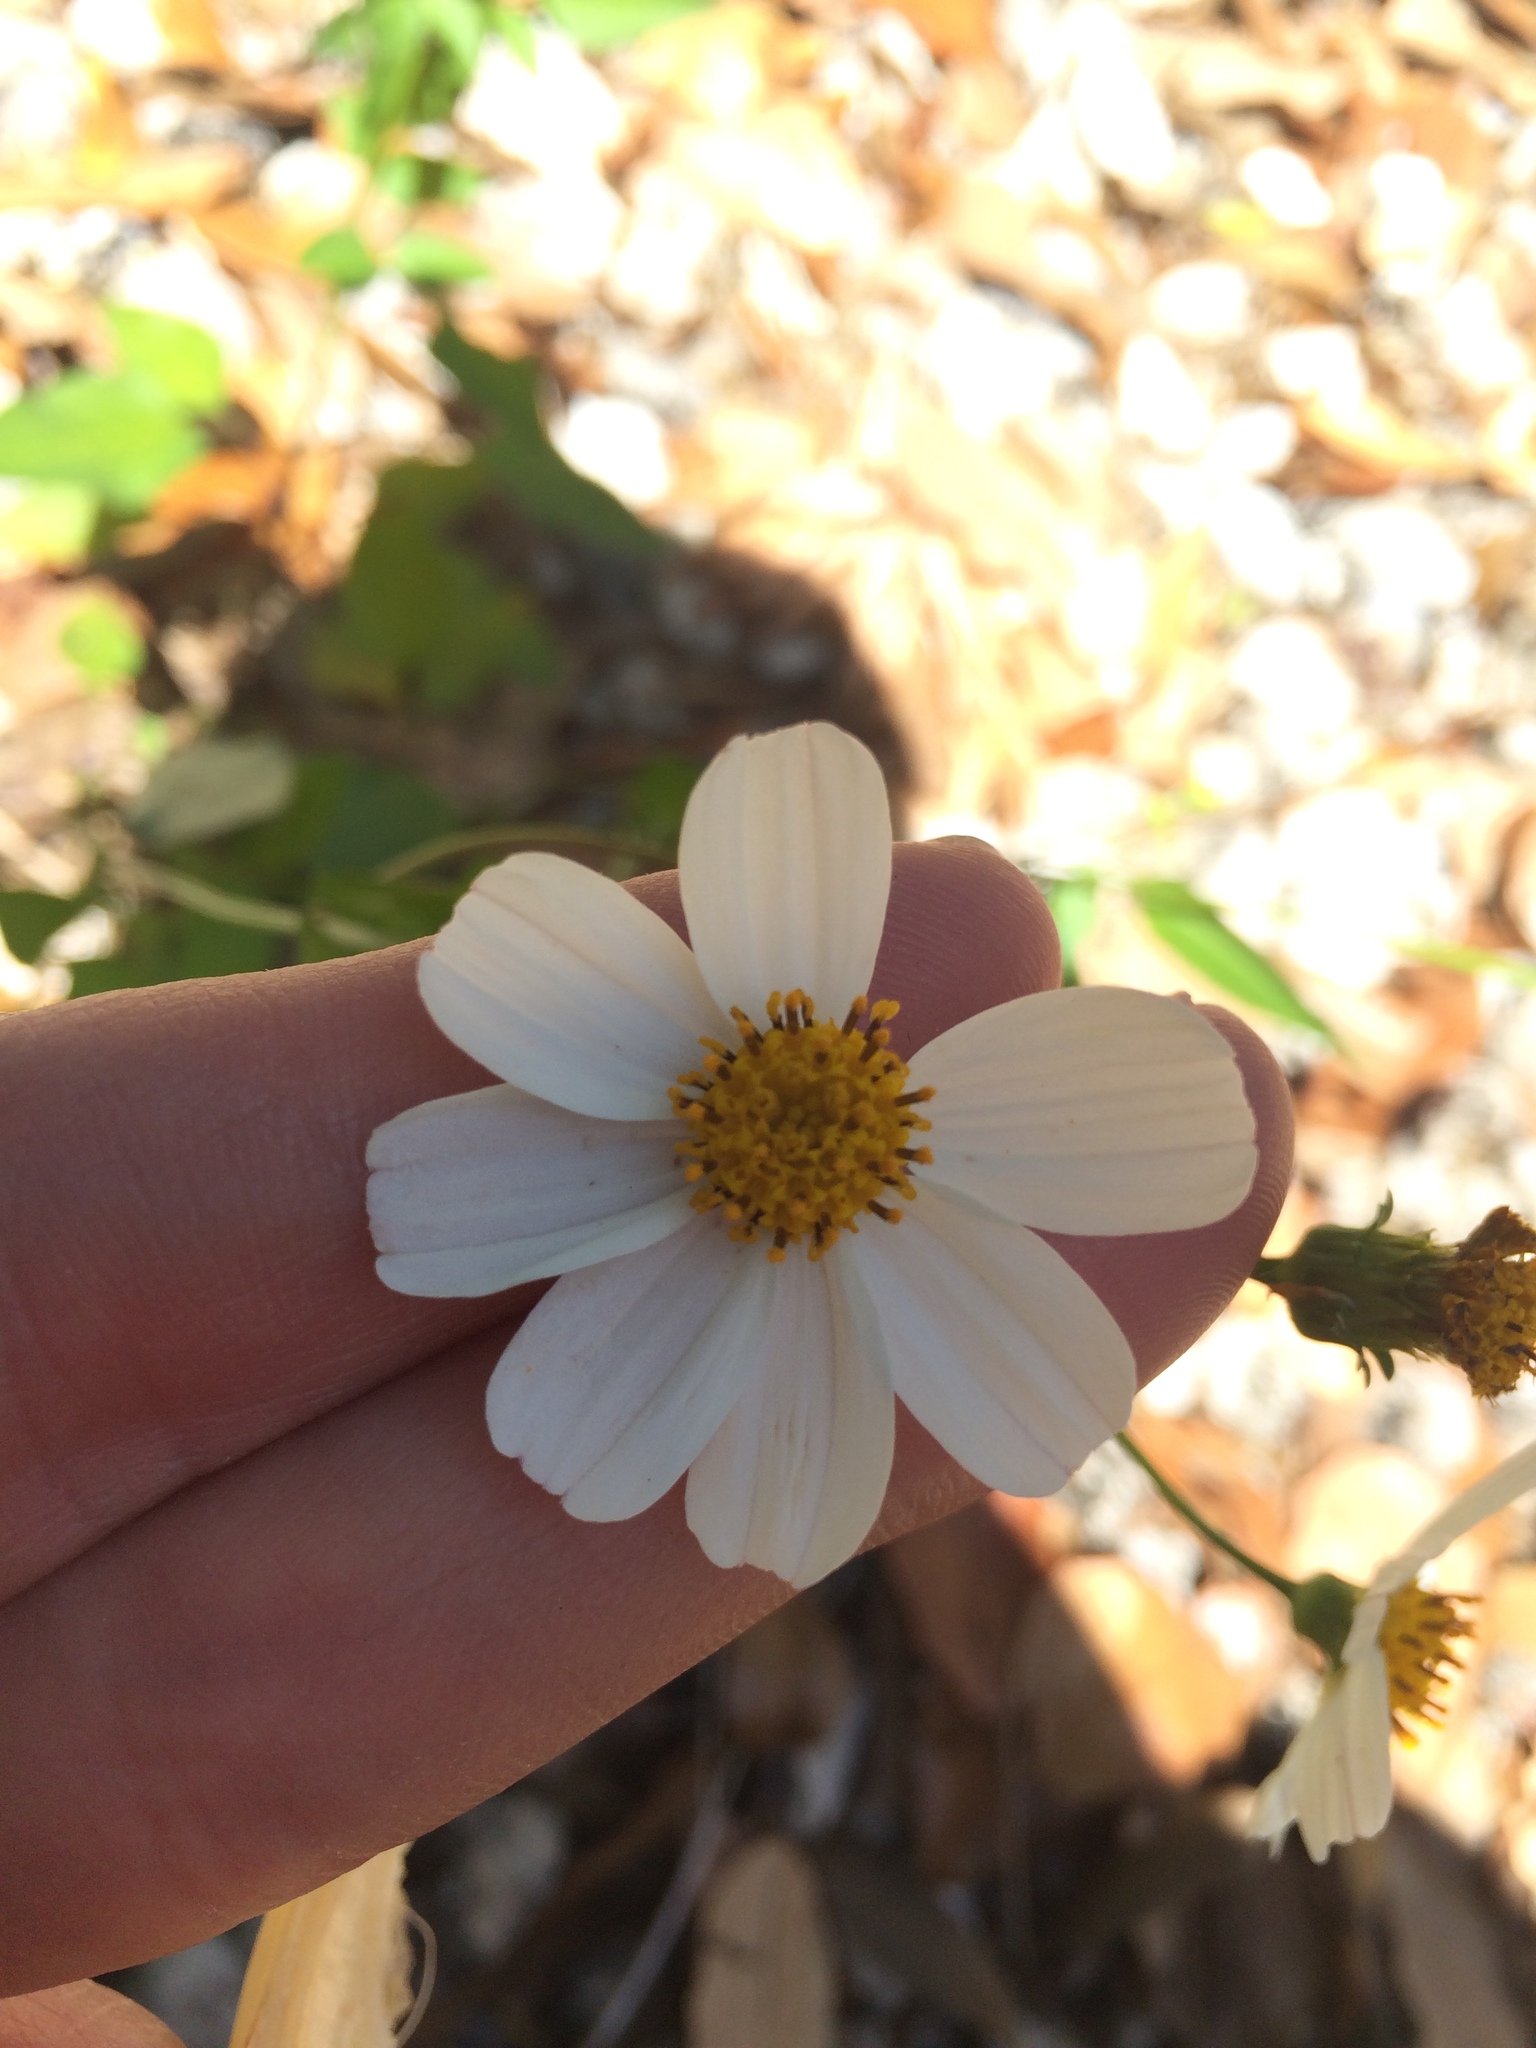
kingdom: Plantae
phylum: Tracheophyta
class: Magnoliopsida
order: Asterales
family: Asteraceae
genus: Bidens
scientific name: Bidens alba
